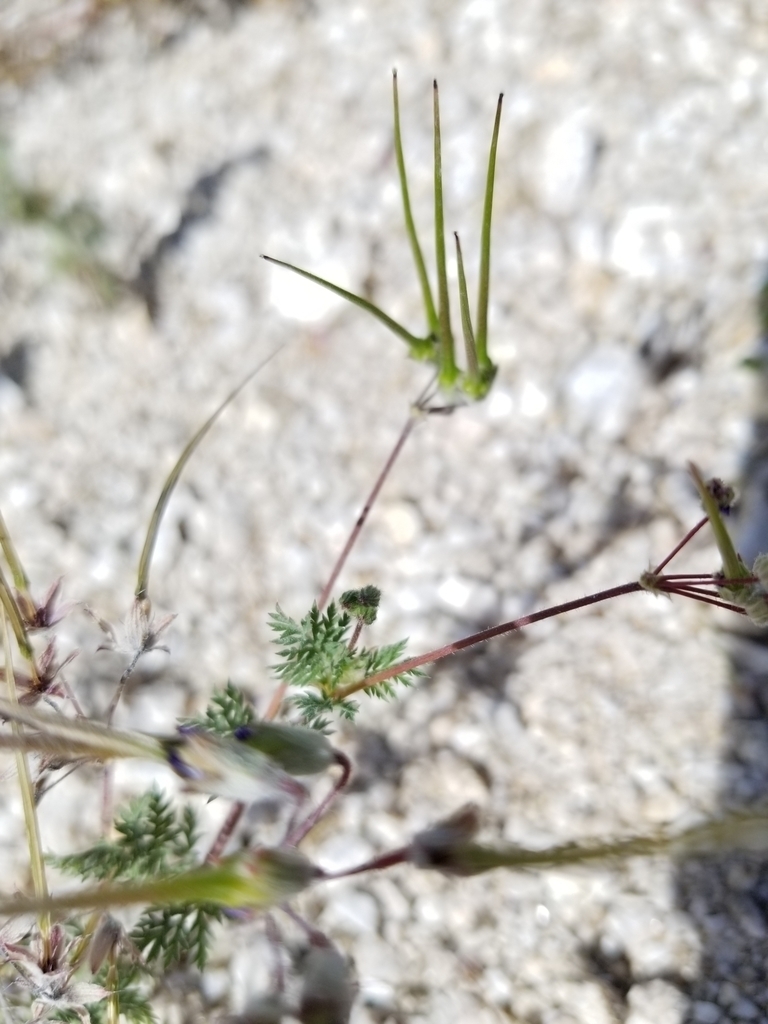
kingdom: Plantae
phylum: Tracheophyta
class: Magnoliopsida
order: Geraniales
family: Geraniaceae
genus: Erodium
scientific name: Erodium cicutarium
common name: Common stork's-bill
